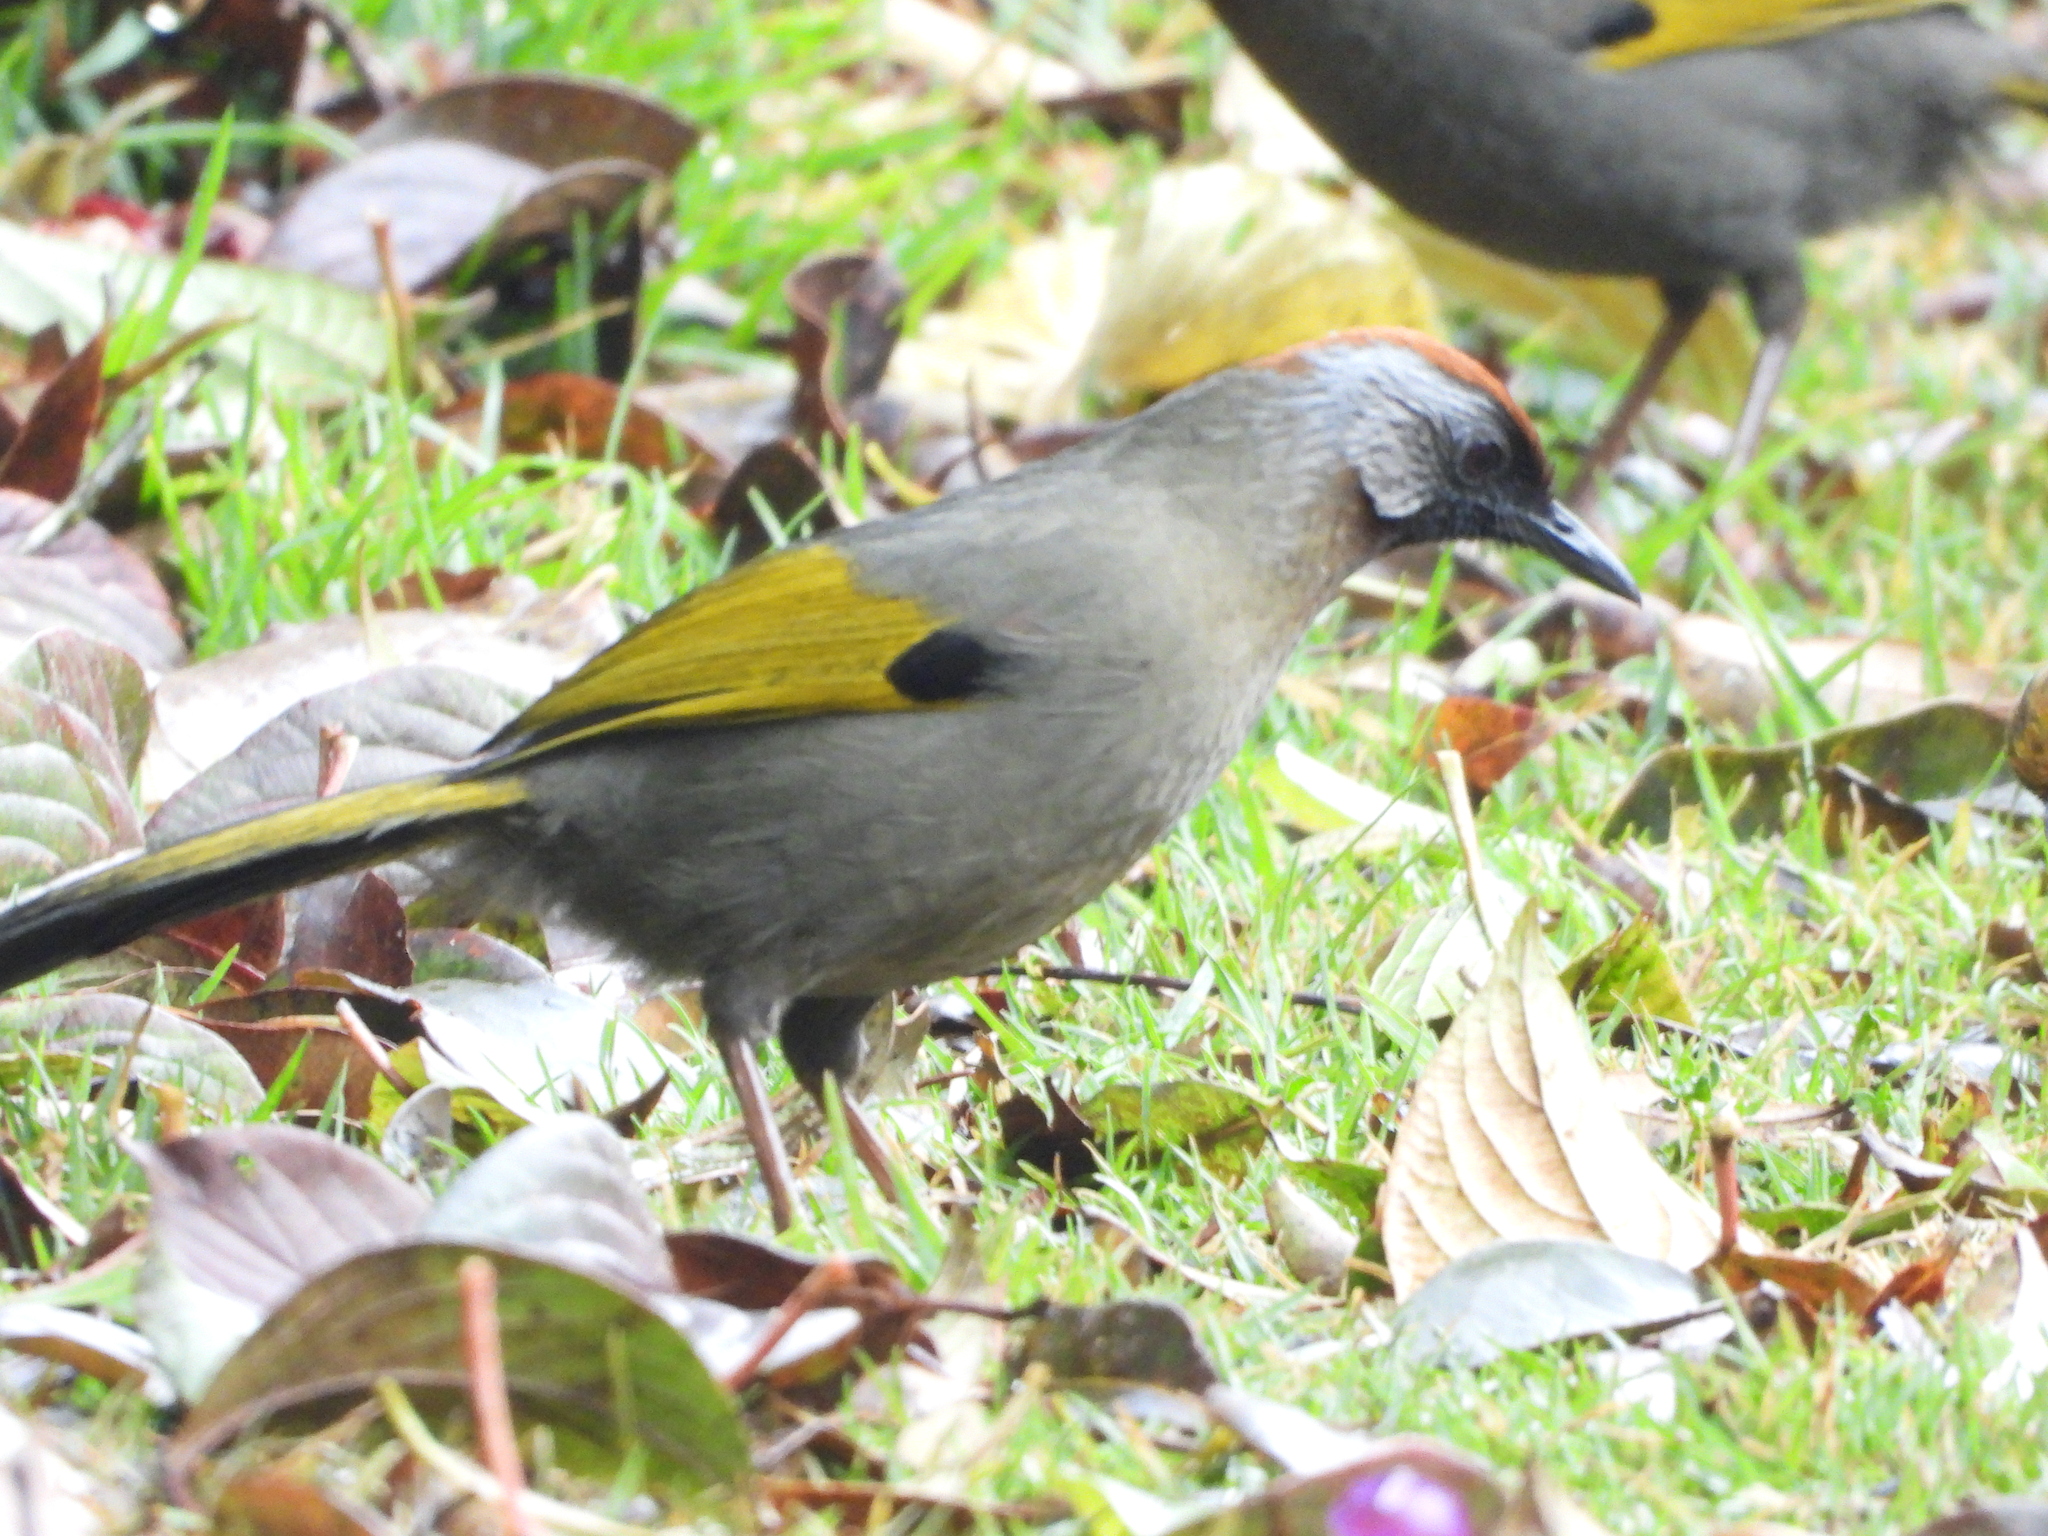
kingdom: Animalia
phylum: Chordata
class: Aves
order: Passeriformes
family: Leiothrichidae
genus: Trochalopteron
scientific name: Trochalopteron melanostigma
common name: Silver-eared laughingthrush
